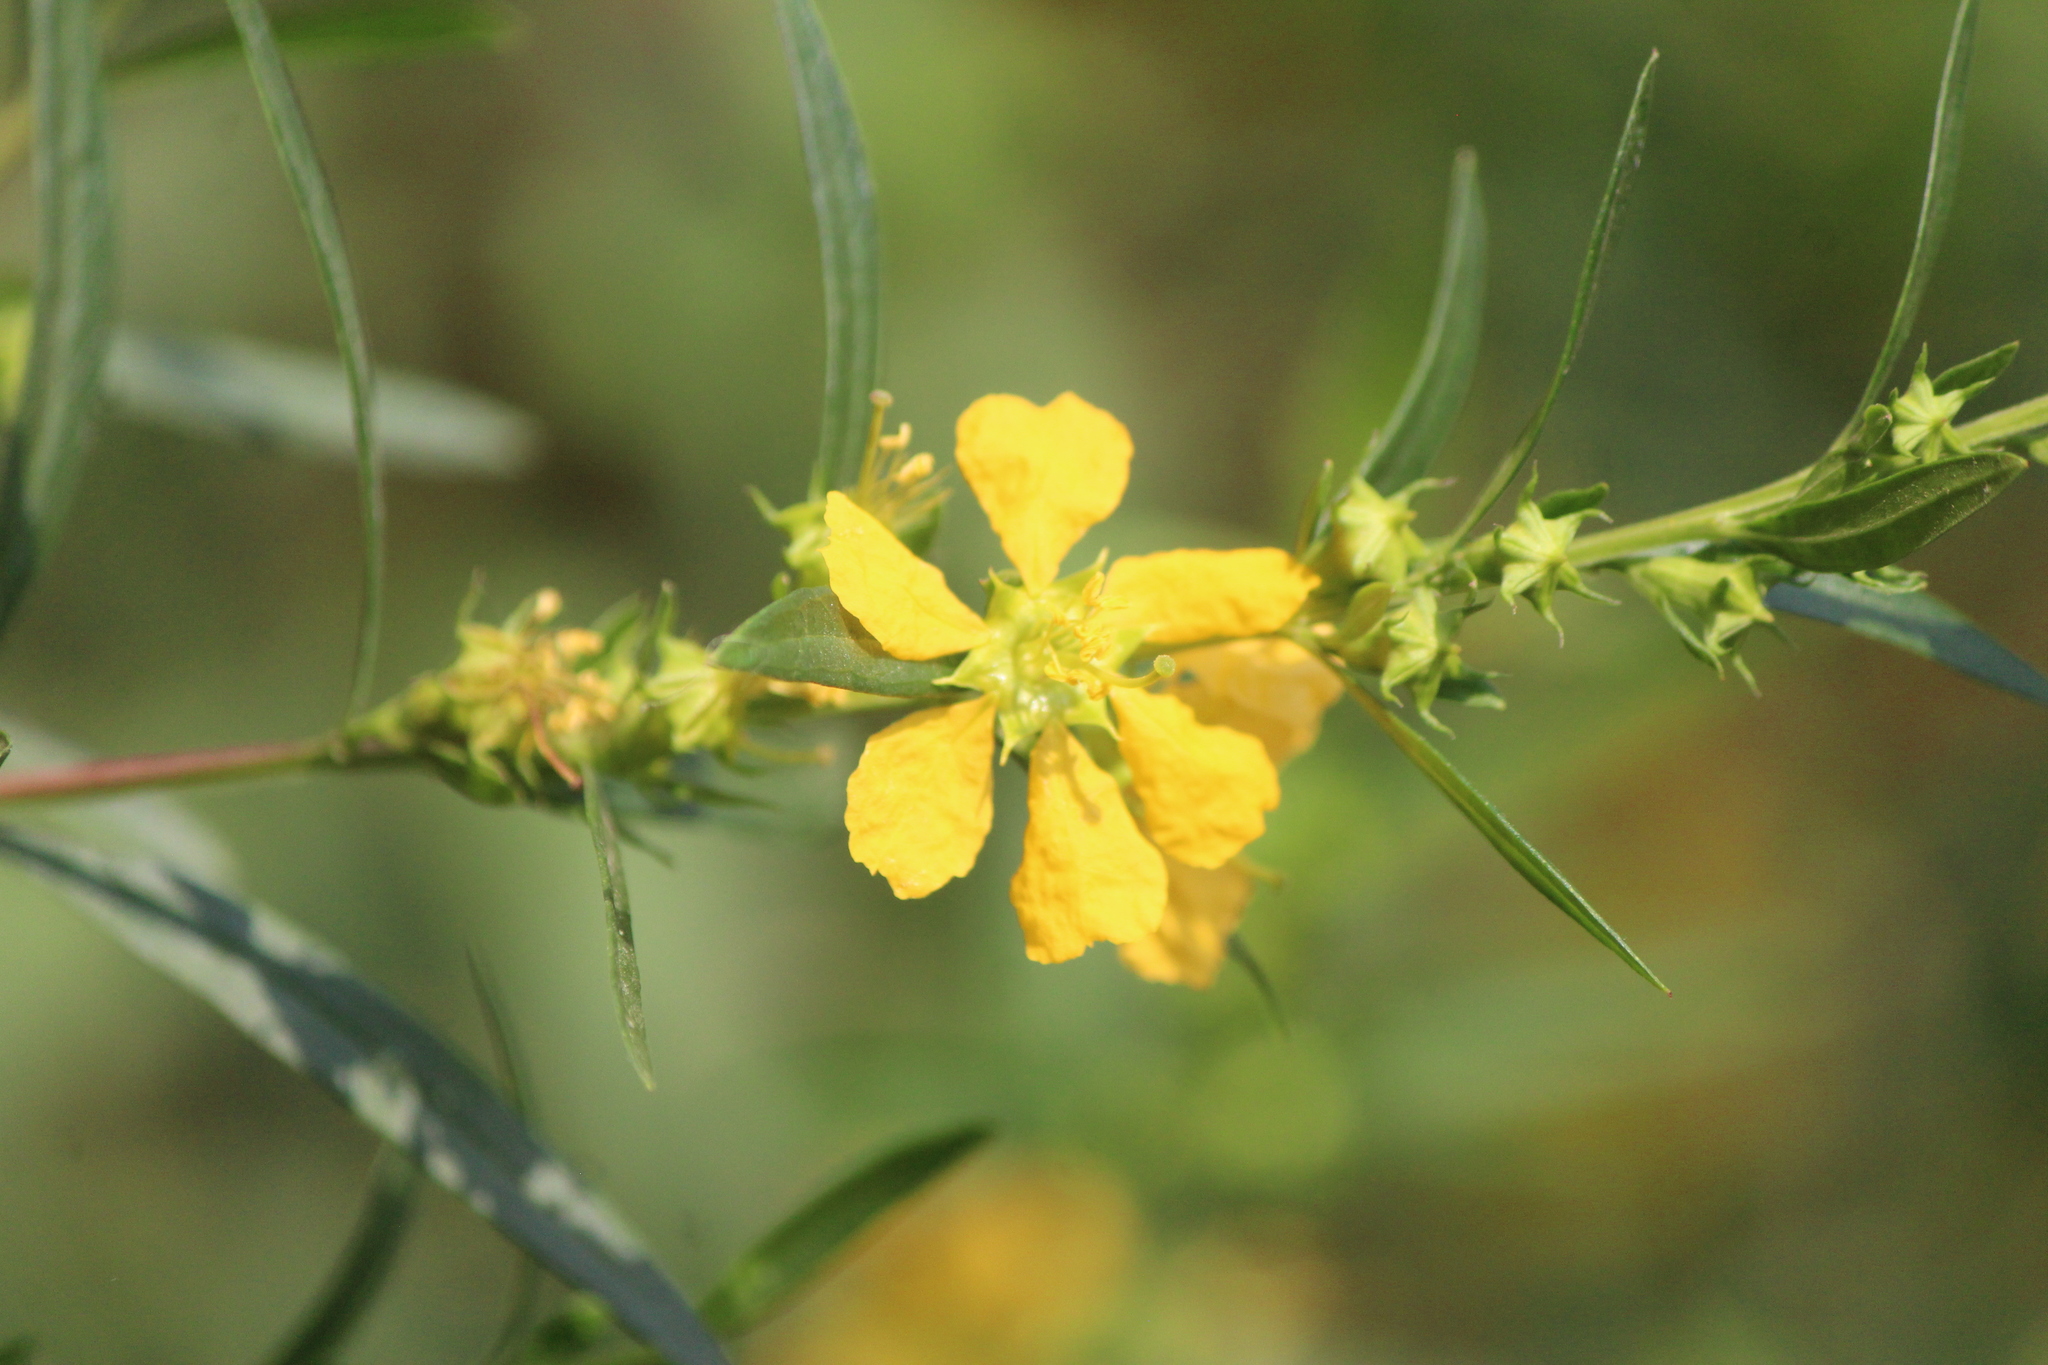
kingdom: Plantae
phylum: Tracheophyta
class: Magnoliopsida
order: Myrtales
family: Lythraceae
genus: Heimia
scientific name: Heimia salicifolia
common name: Willow-leaf heimia
